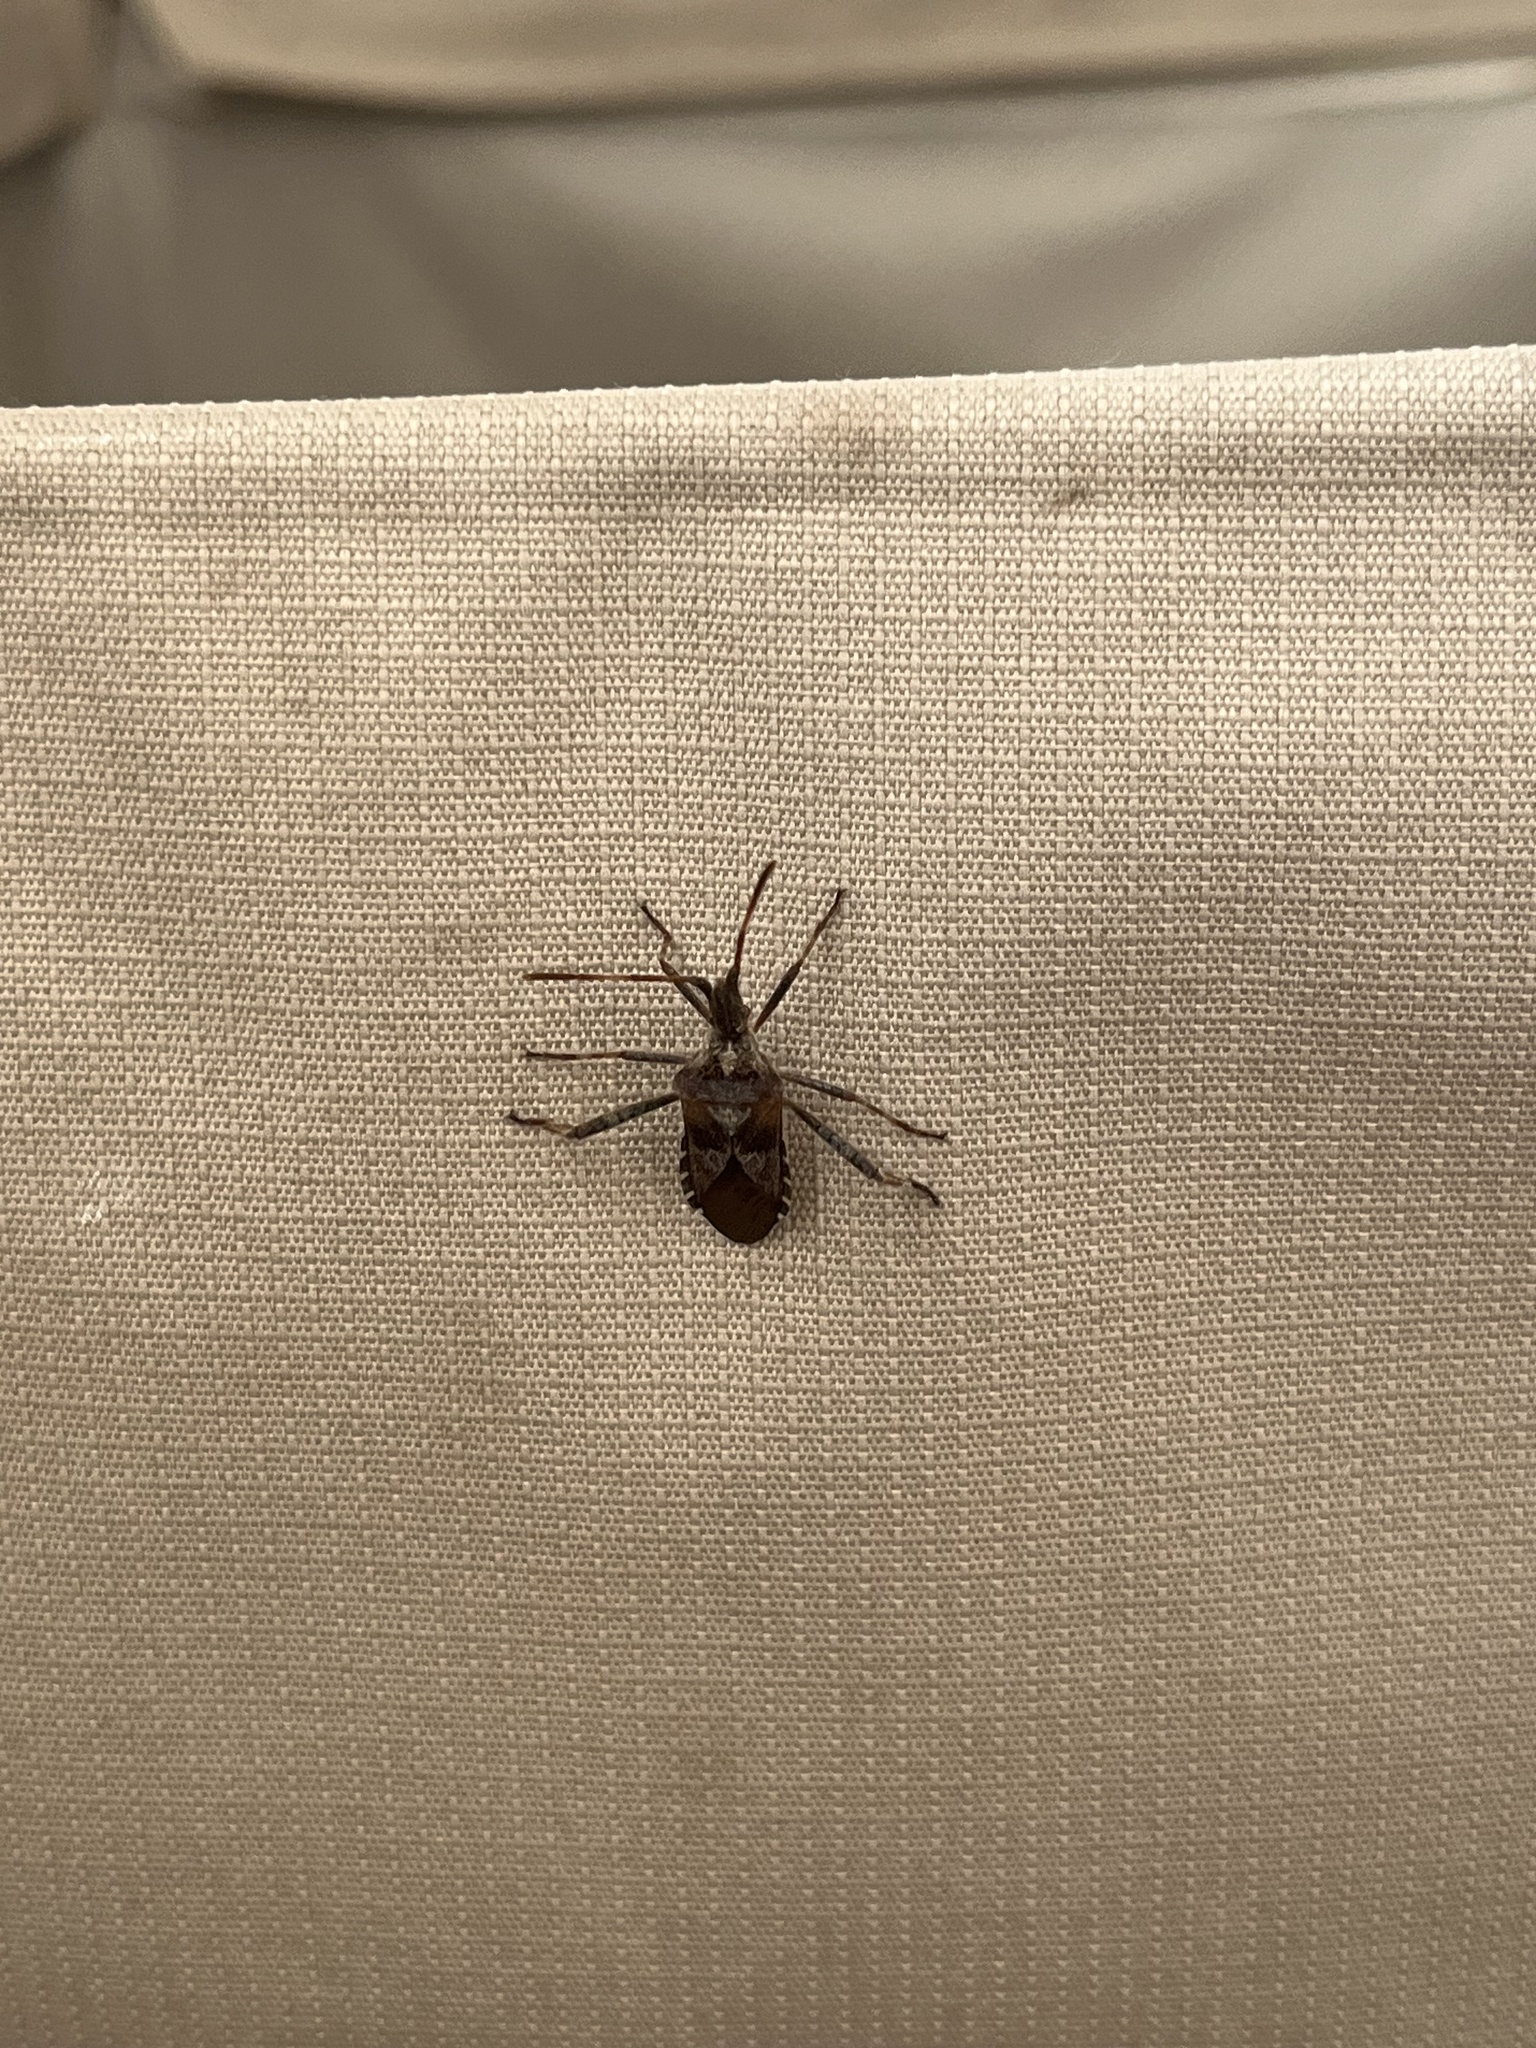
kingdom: Animalia
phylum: Arthropoda
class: Insecta
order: Hemiptera
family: Coreidae
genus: Leptoglossus
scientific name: Leptoglossus occidentalis
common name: Western conifer-seed bug
